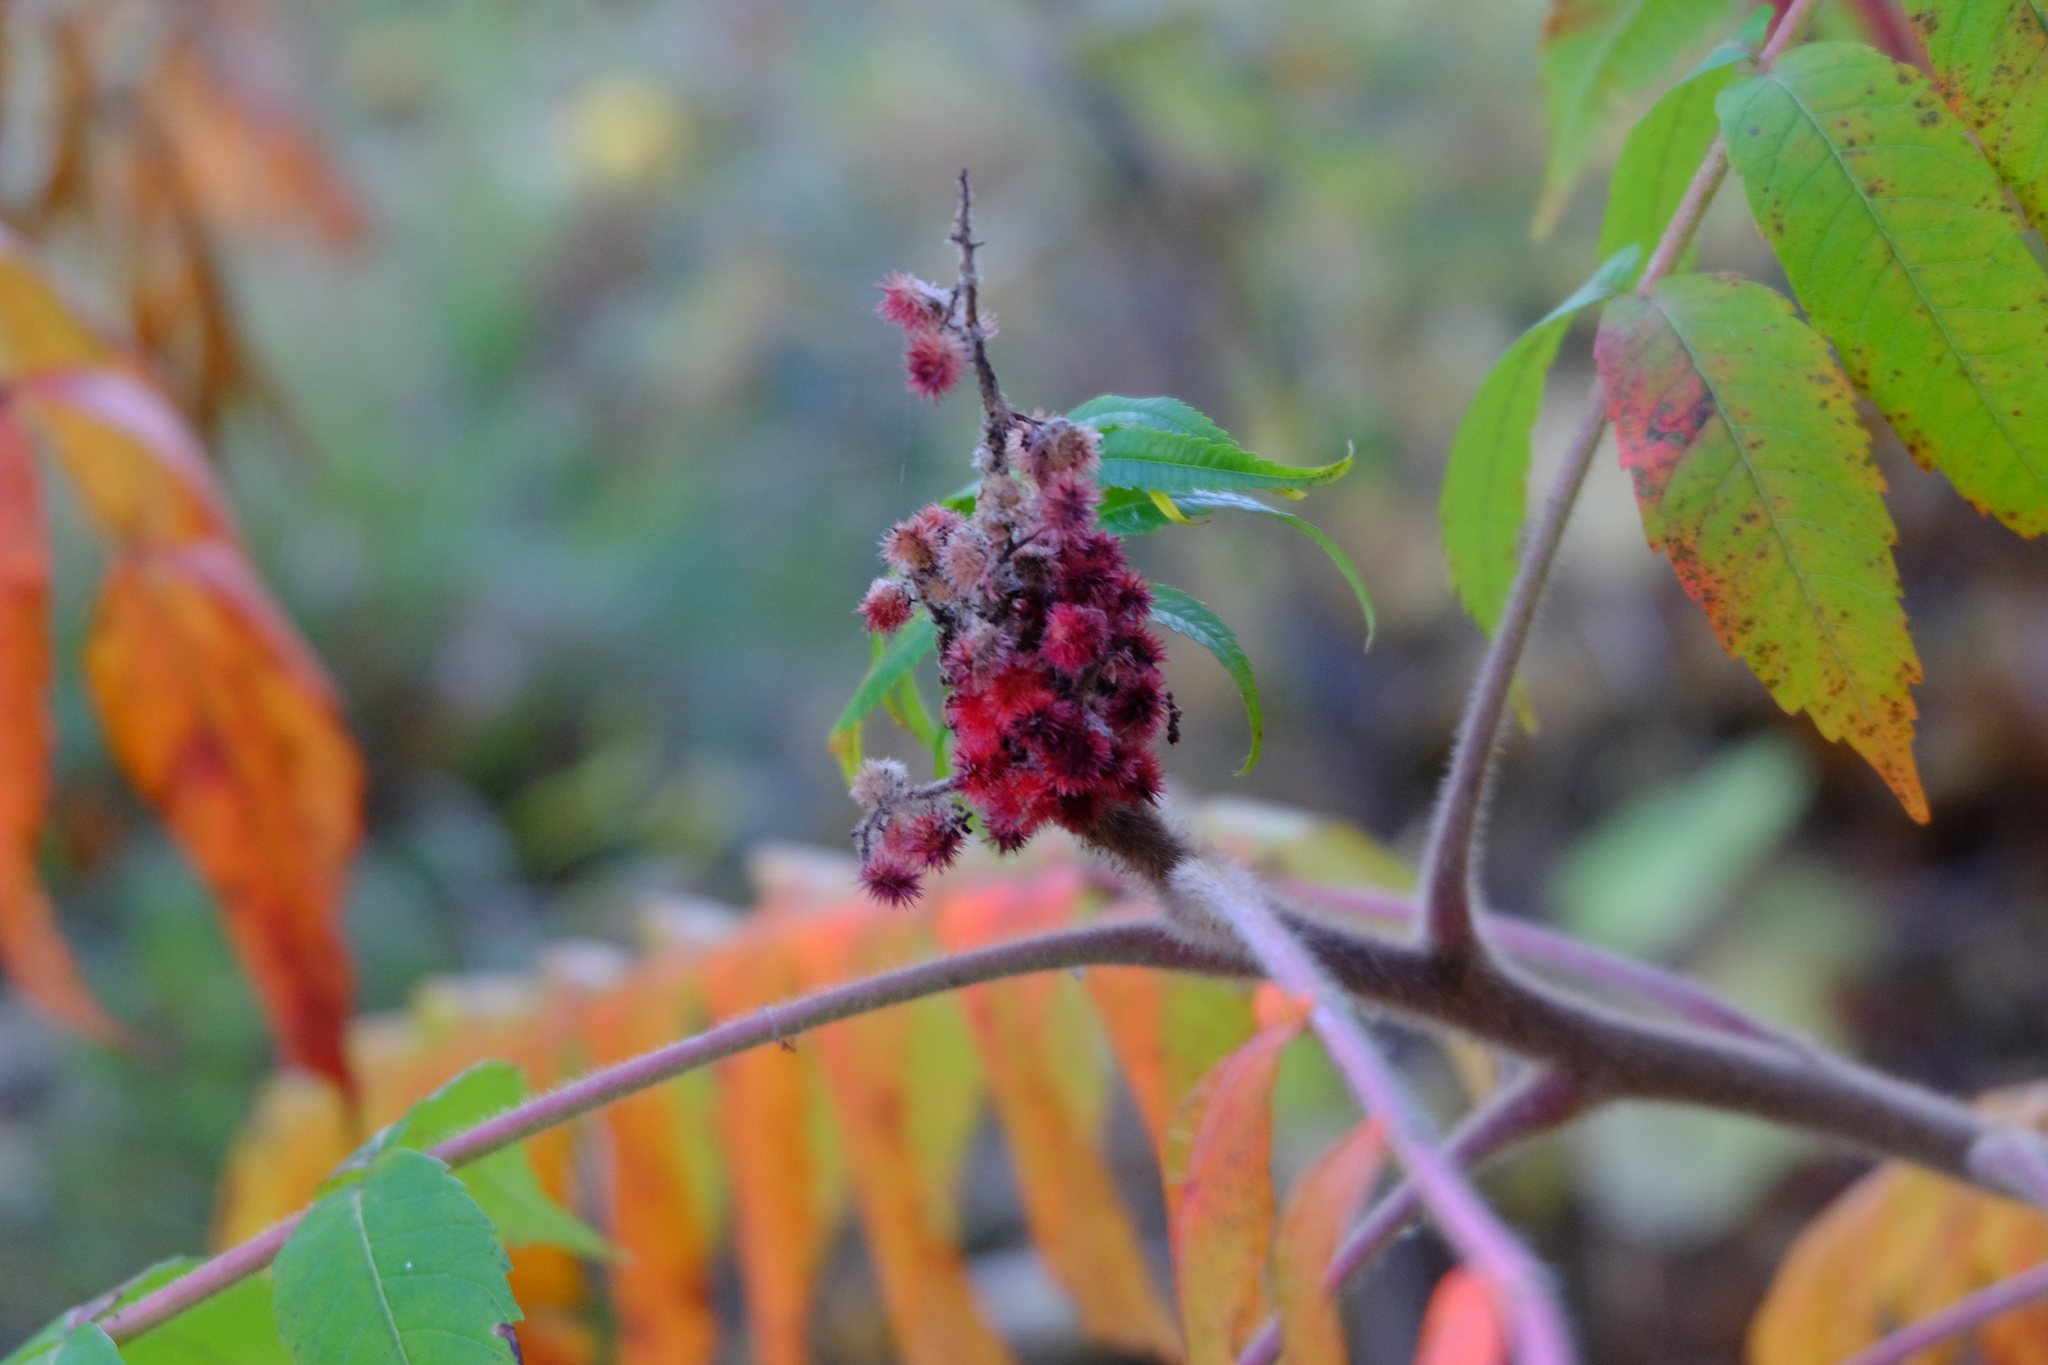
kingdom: Plantae
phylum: Tracheophyta
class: Magnoliopsida
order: Sapindales
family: Anacardiaceae
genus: Rhus
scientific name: Rhus typhina
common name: Staghorn sumac
